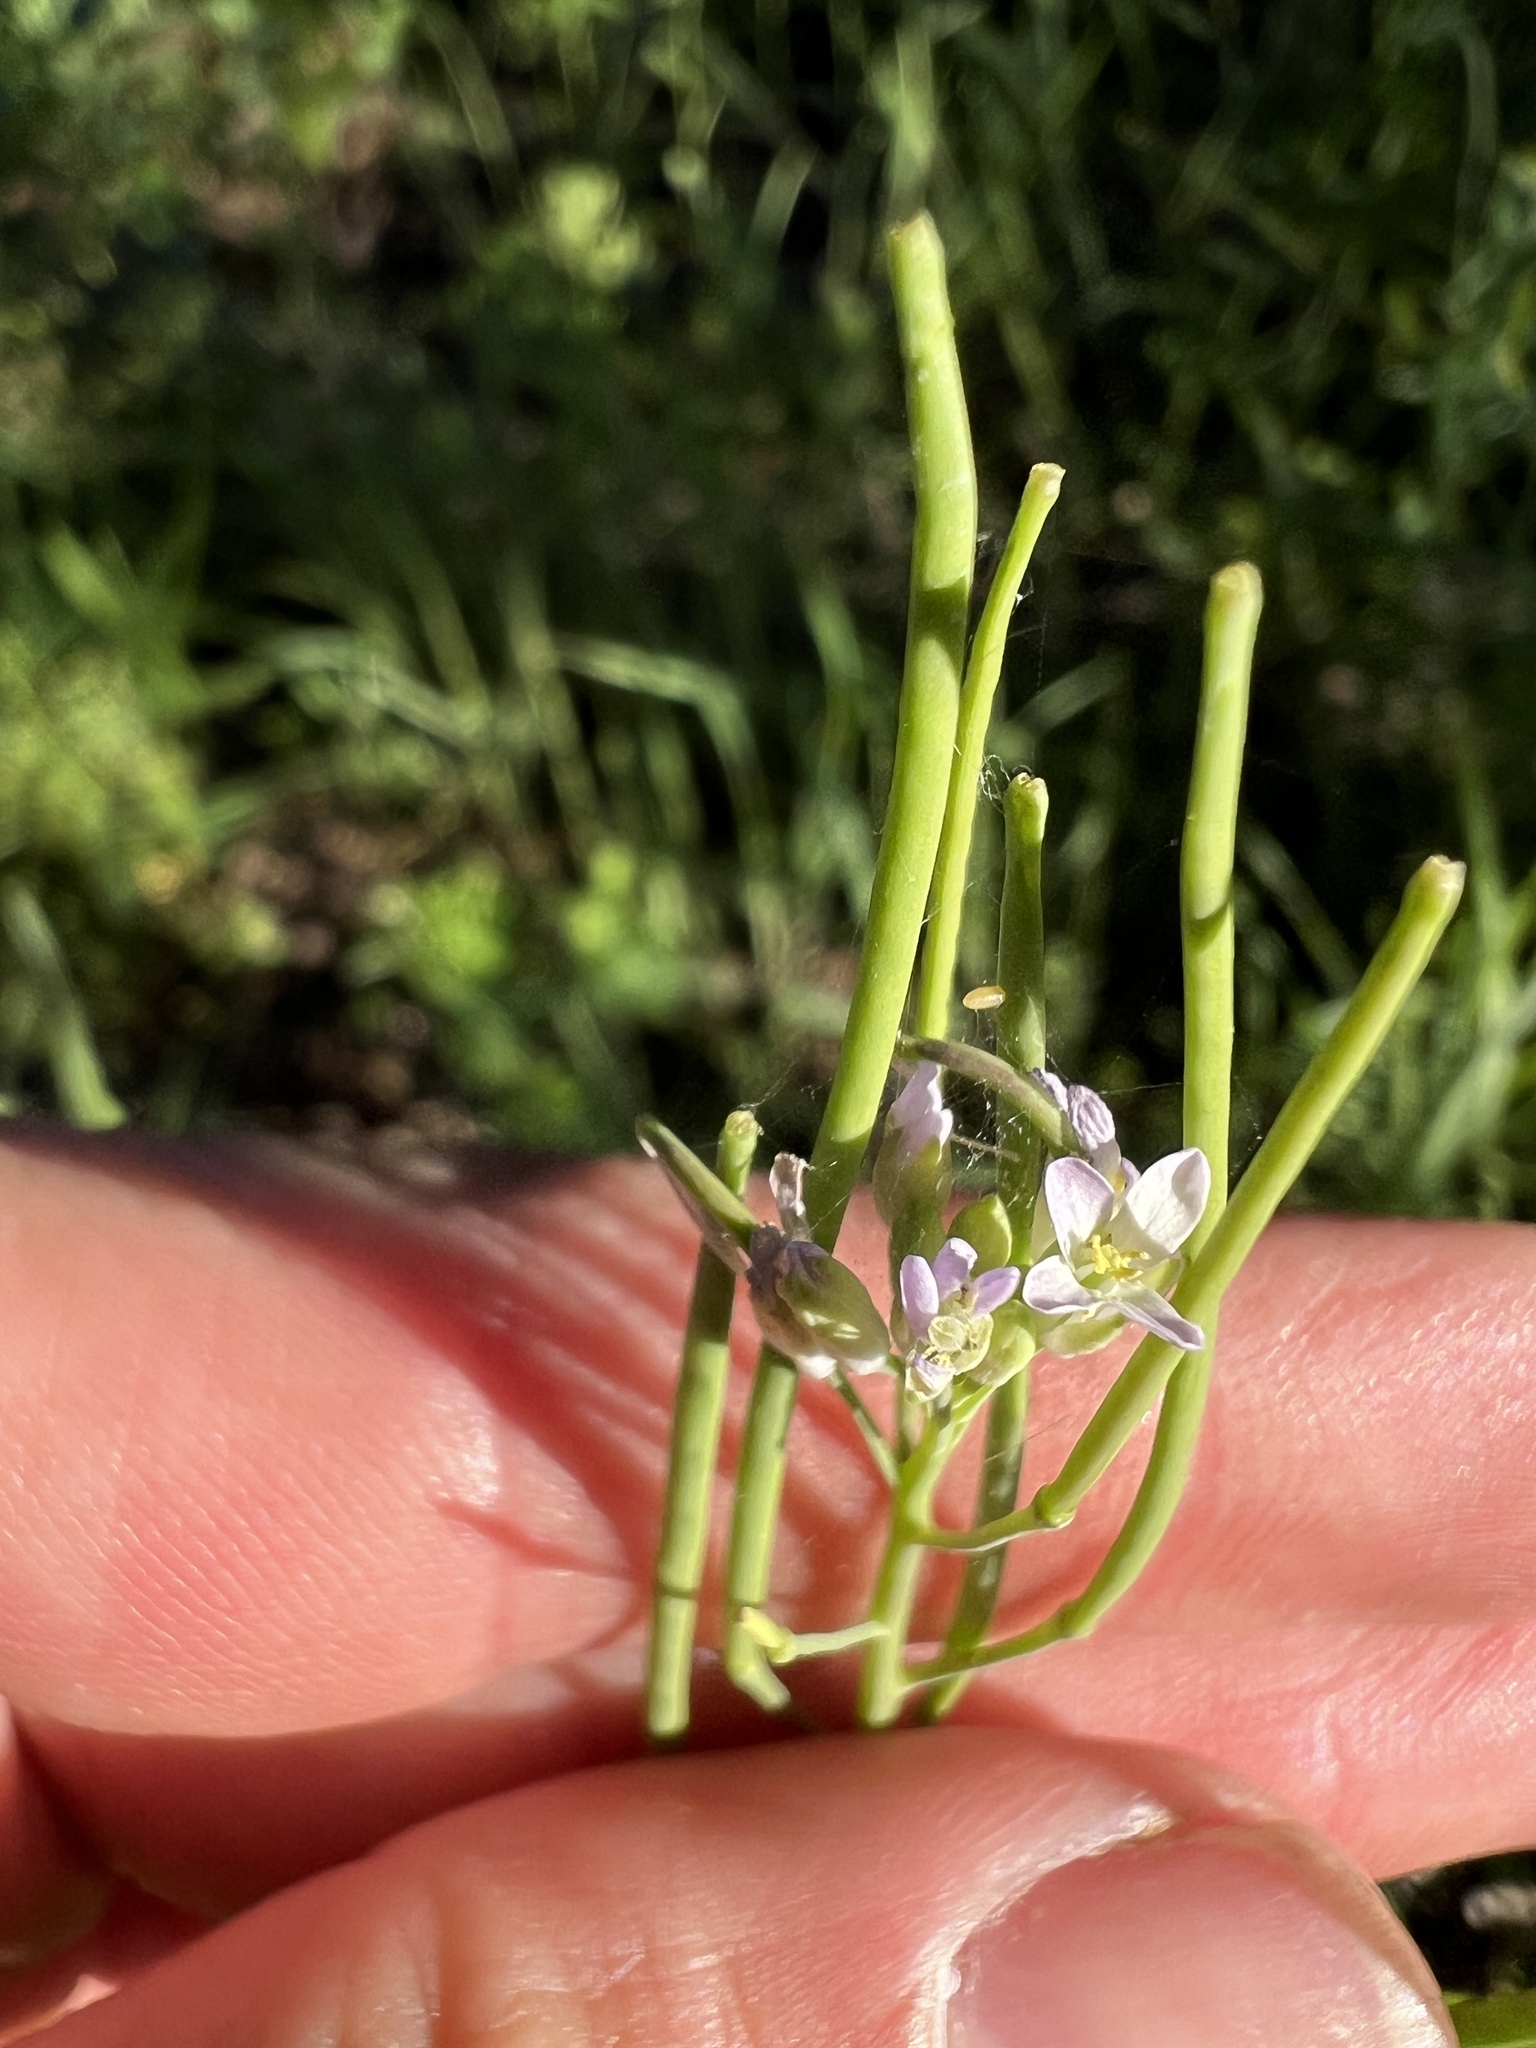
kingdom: Plantae
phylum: Tracheophyta
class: Magnoliopsida
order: Brassicales
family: Brassicaceae
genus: Streptanthus
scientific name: Streptanthus petiolaris
